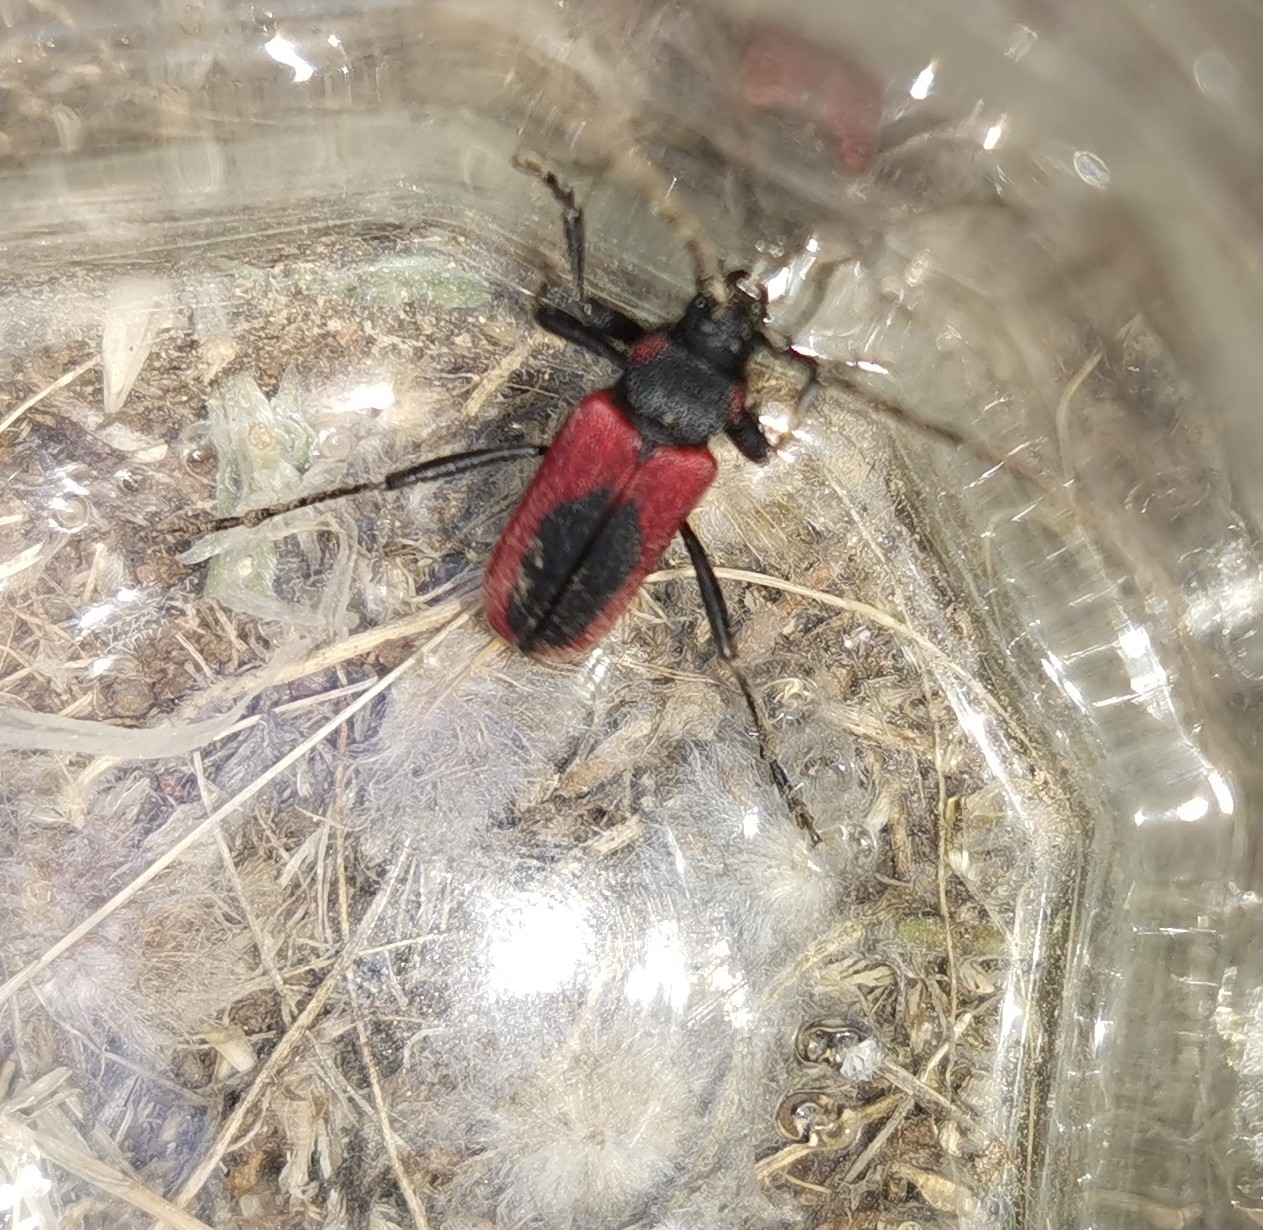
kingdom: Animalia
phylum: Arthropoda
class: Insecta
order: Coleoptera
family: Cerambycidae
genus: Purpuricenus
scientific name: Purpuricenus kaehleri
